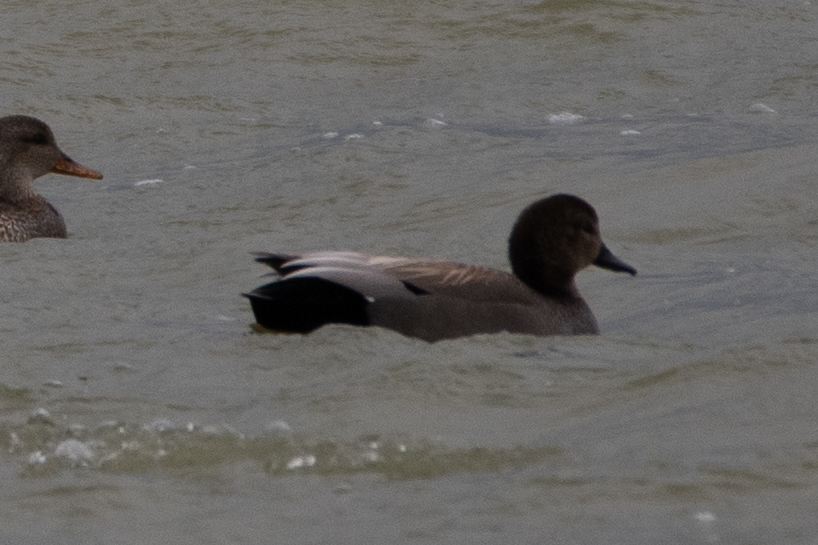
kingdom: Animalia
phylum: Chordata
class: Aves
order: Anseriformes
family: Anatidae
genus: Mareca
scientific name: Mareca strepera
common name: Gadwall
